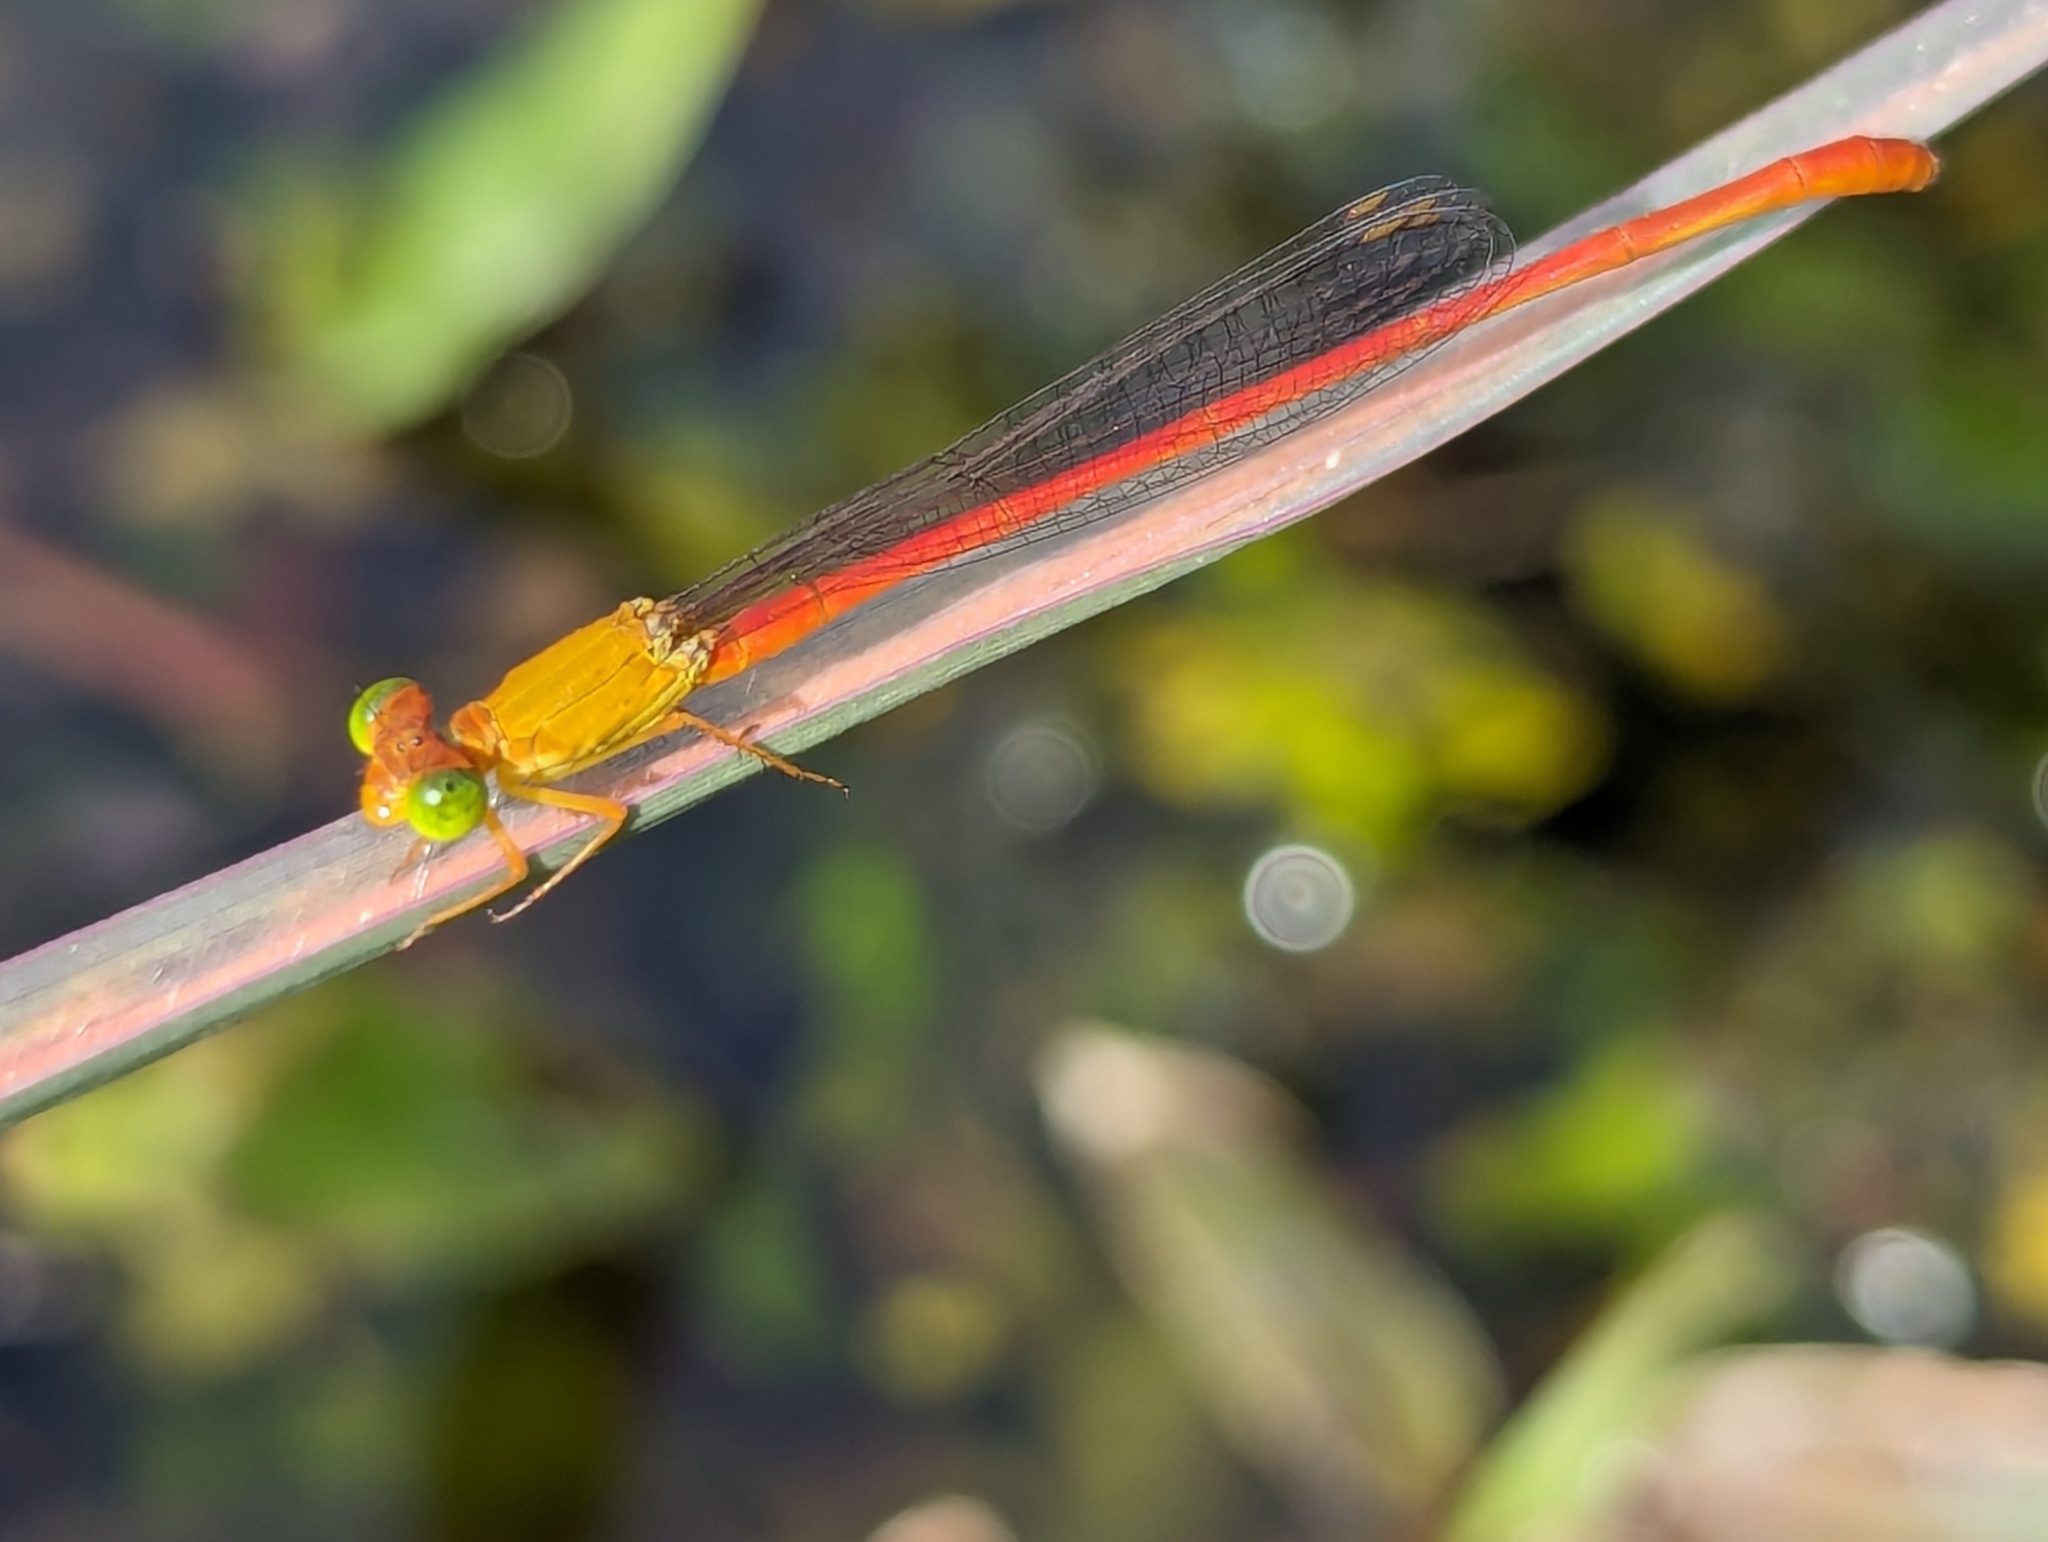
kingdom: Animalia
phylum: Arthropoda
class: Insecta
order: Odonata
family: Coenagrionidae
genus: Ceriagrion
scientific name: Ceriagrion auranticum
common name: Orange-tailed sprite
